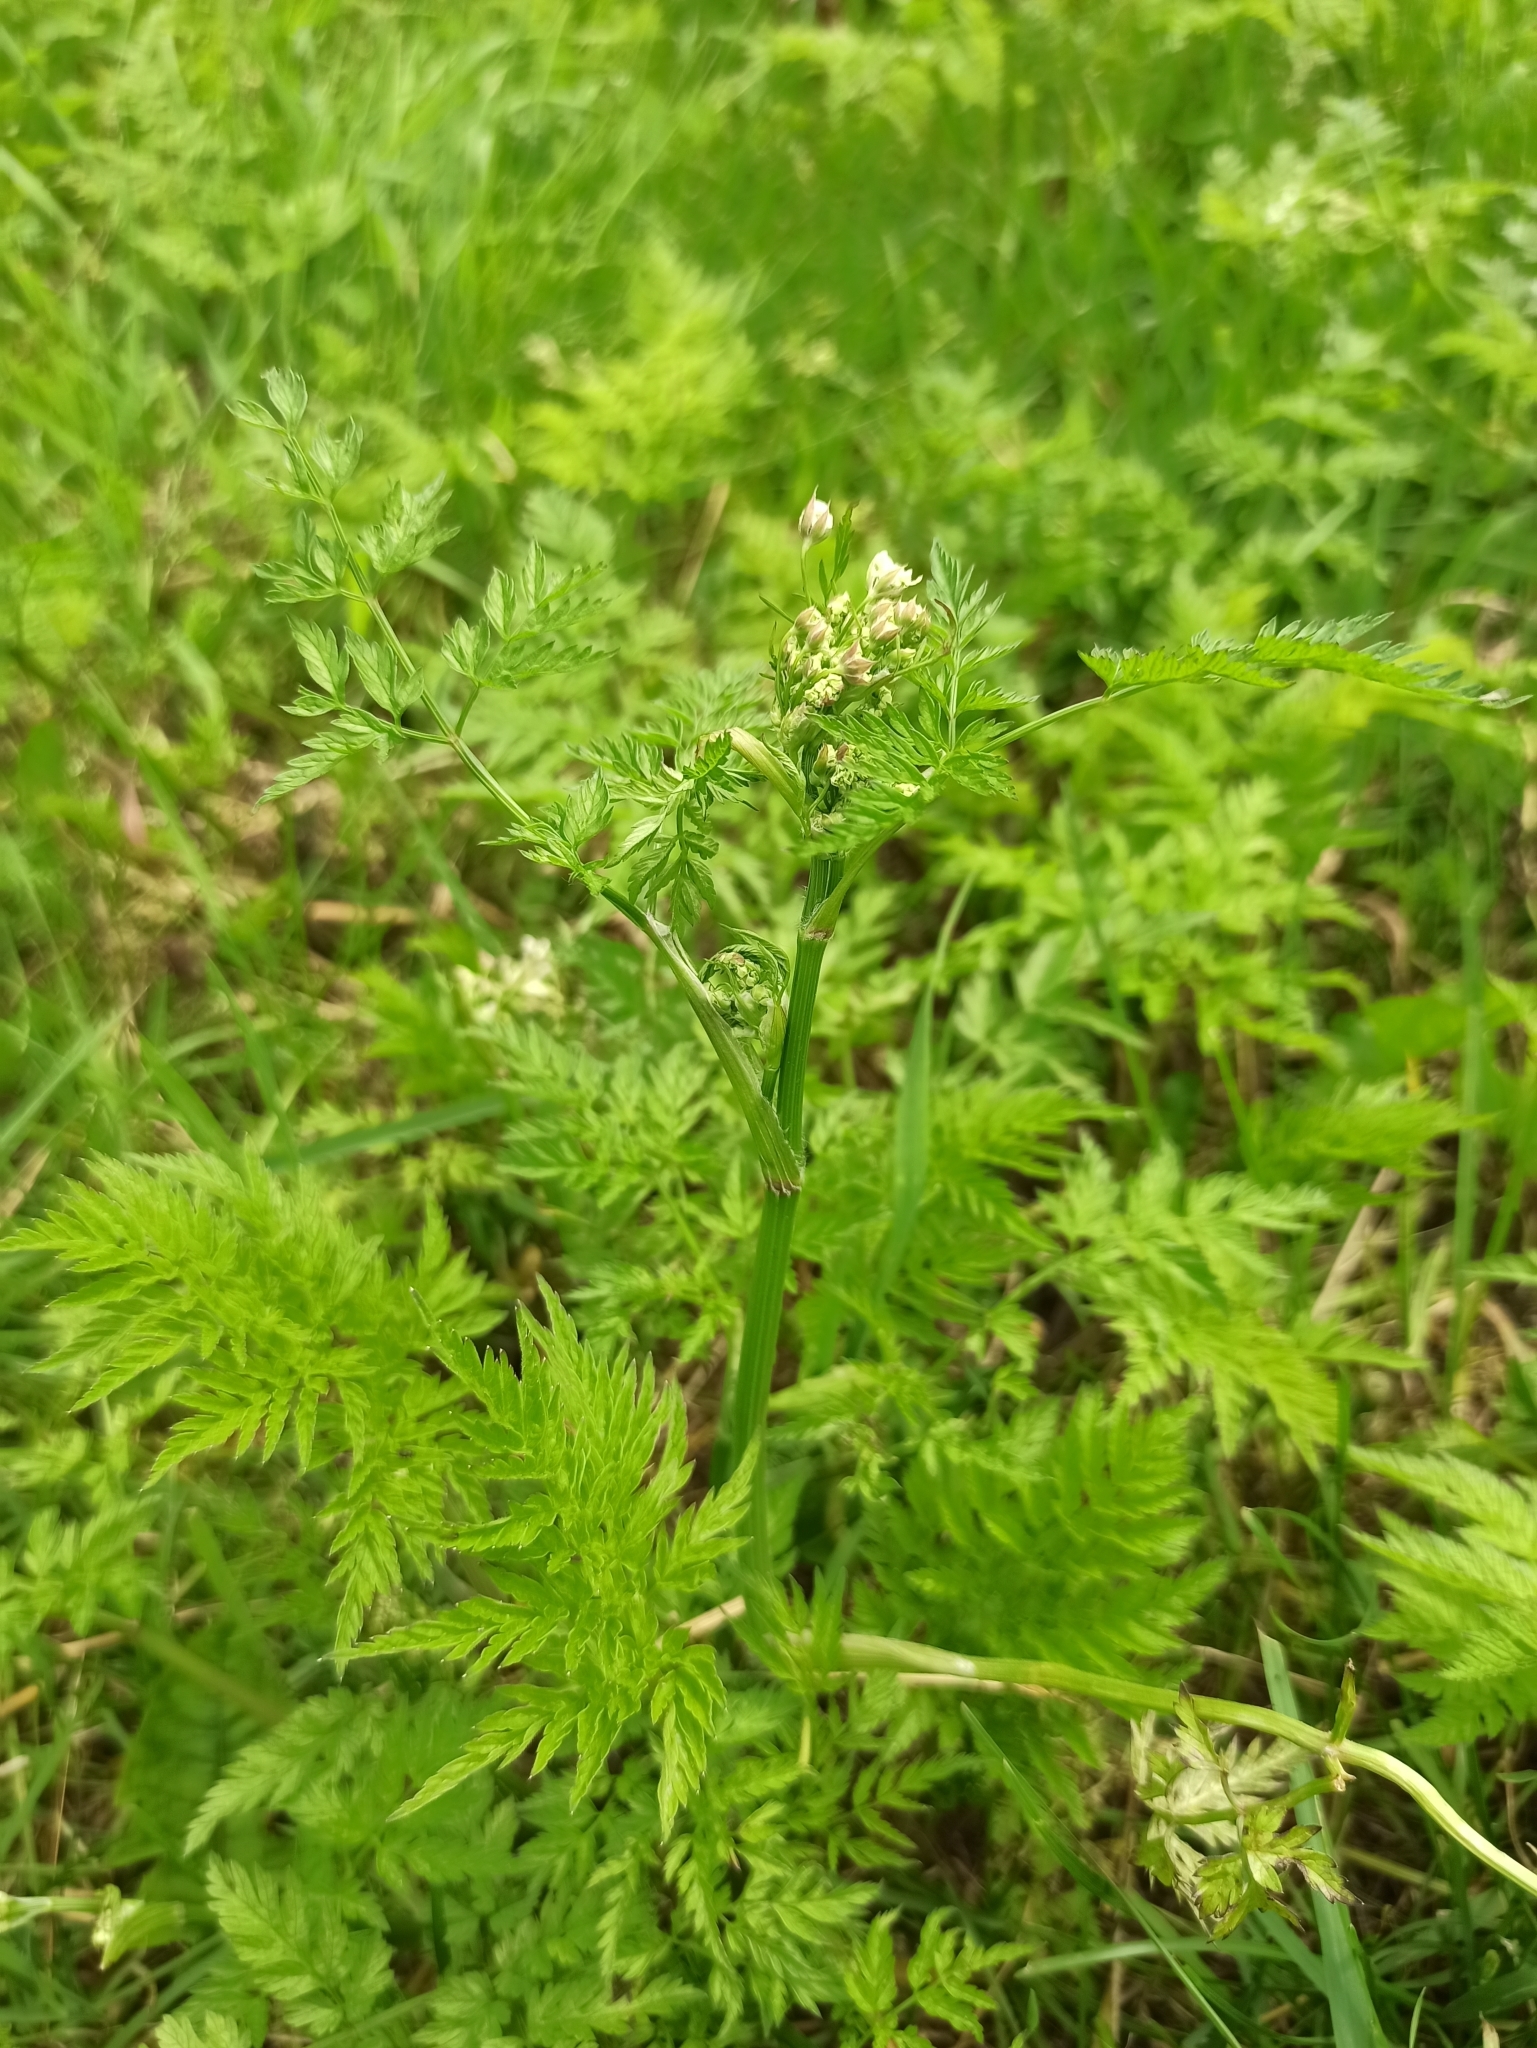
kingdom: Plantae
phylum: Tracheophyta
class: Magnoliopsida
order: Apiales
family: Apiaceae
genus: Anthriscus
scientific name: Anthriscus sylvestris
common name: Cow parsley
